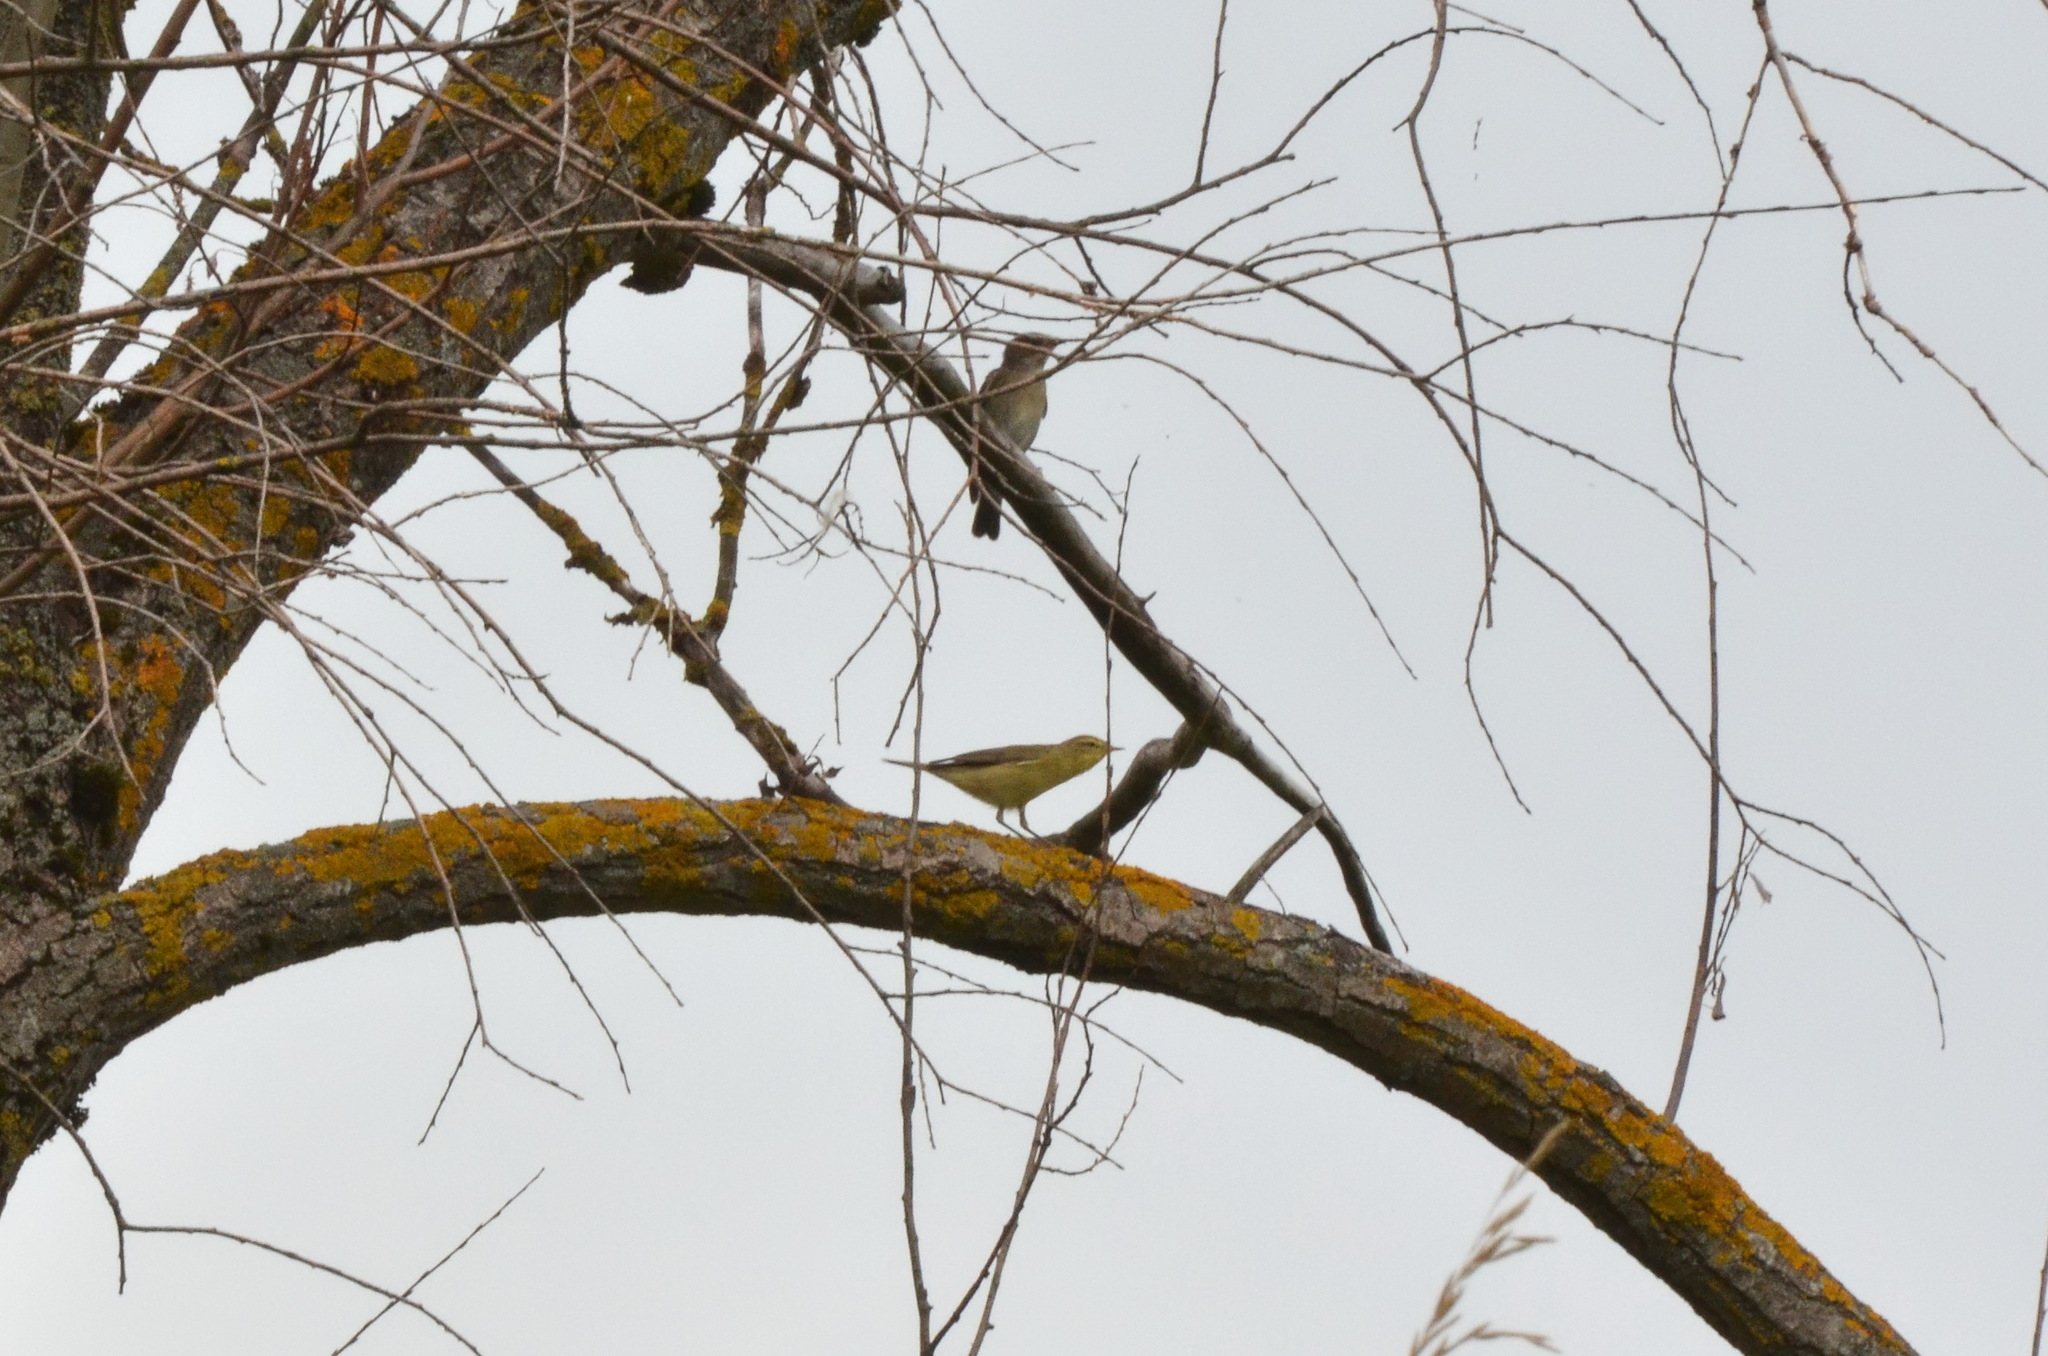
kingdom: Animalia
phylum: Chordata
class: Aves
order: Passeriformes
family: Phylloscopidae
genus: Phylloscopus
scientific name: Phylloscopus trochilus
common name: Willow warbler
